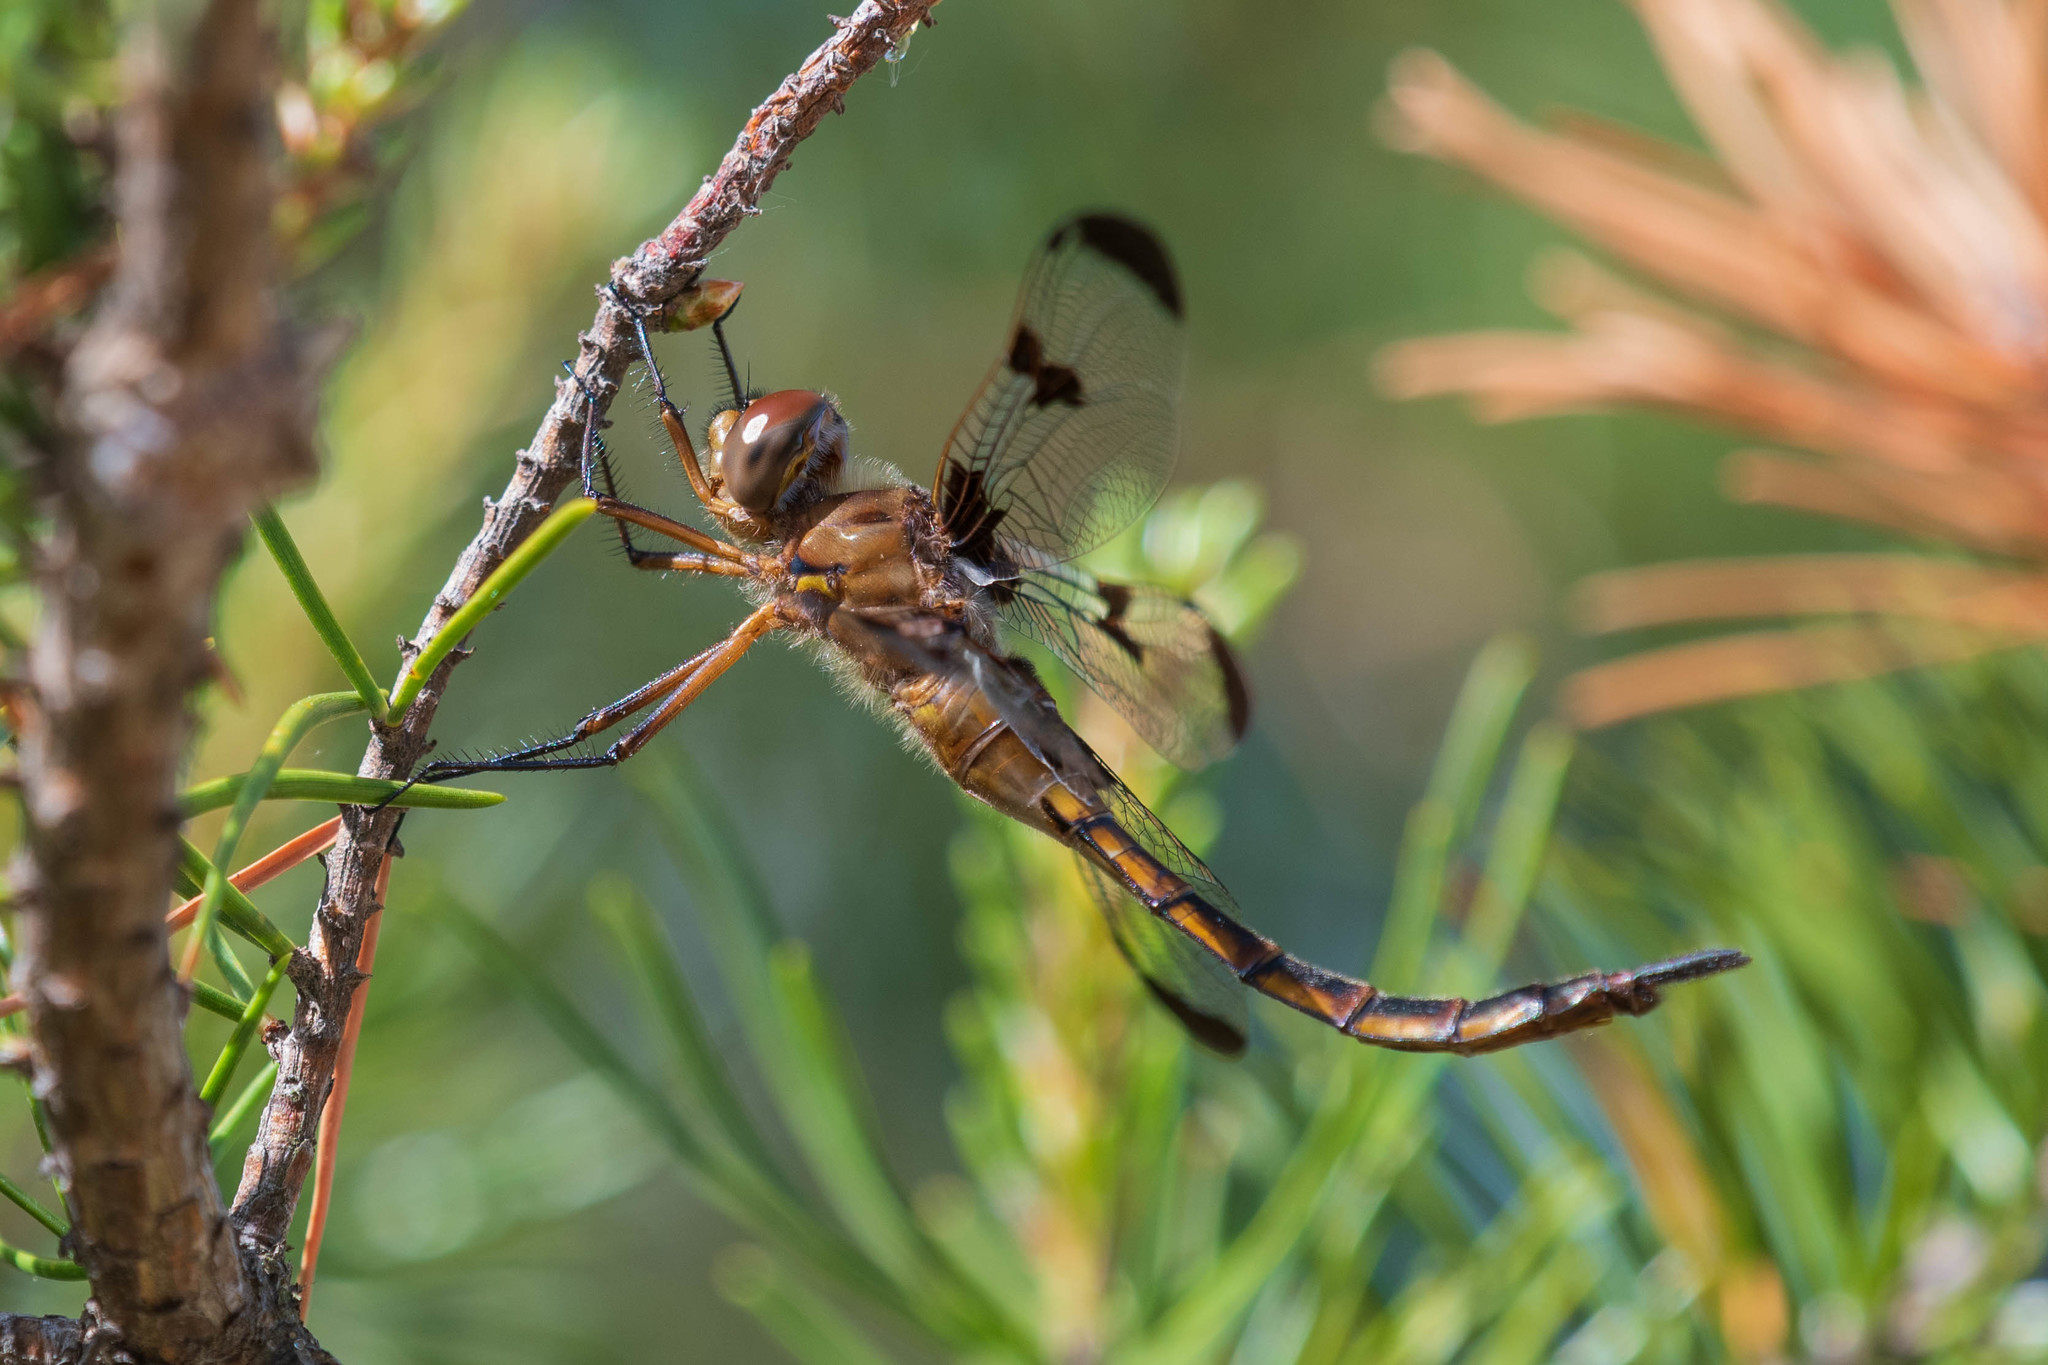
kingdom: Animalia
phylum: Arthropoda
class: Insecta
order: Odonata
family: Corduliidae
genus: Epitheca
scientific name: Epitheca princeps
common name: Prince baskettail
